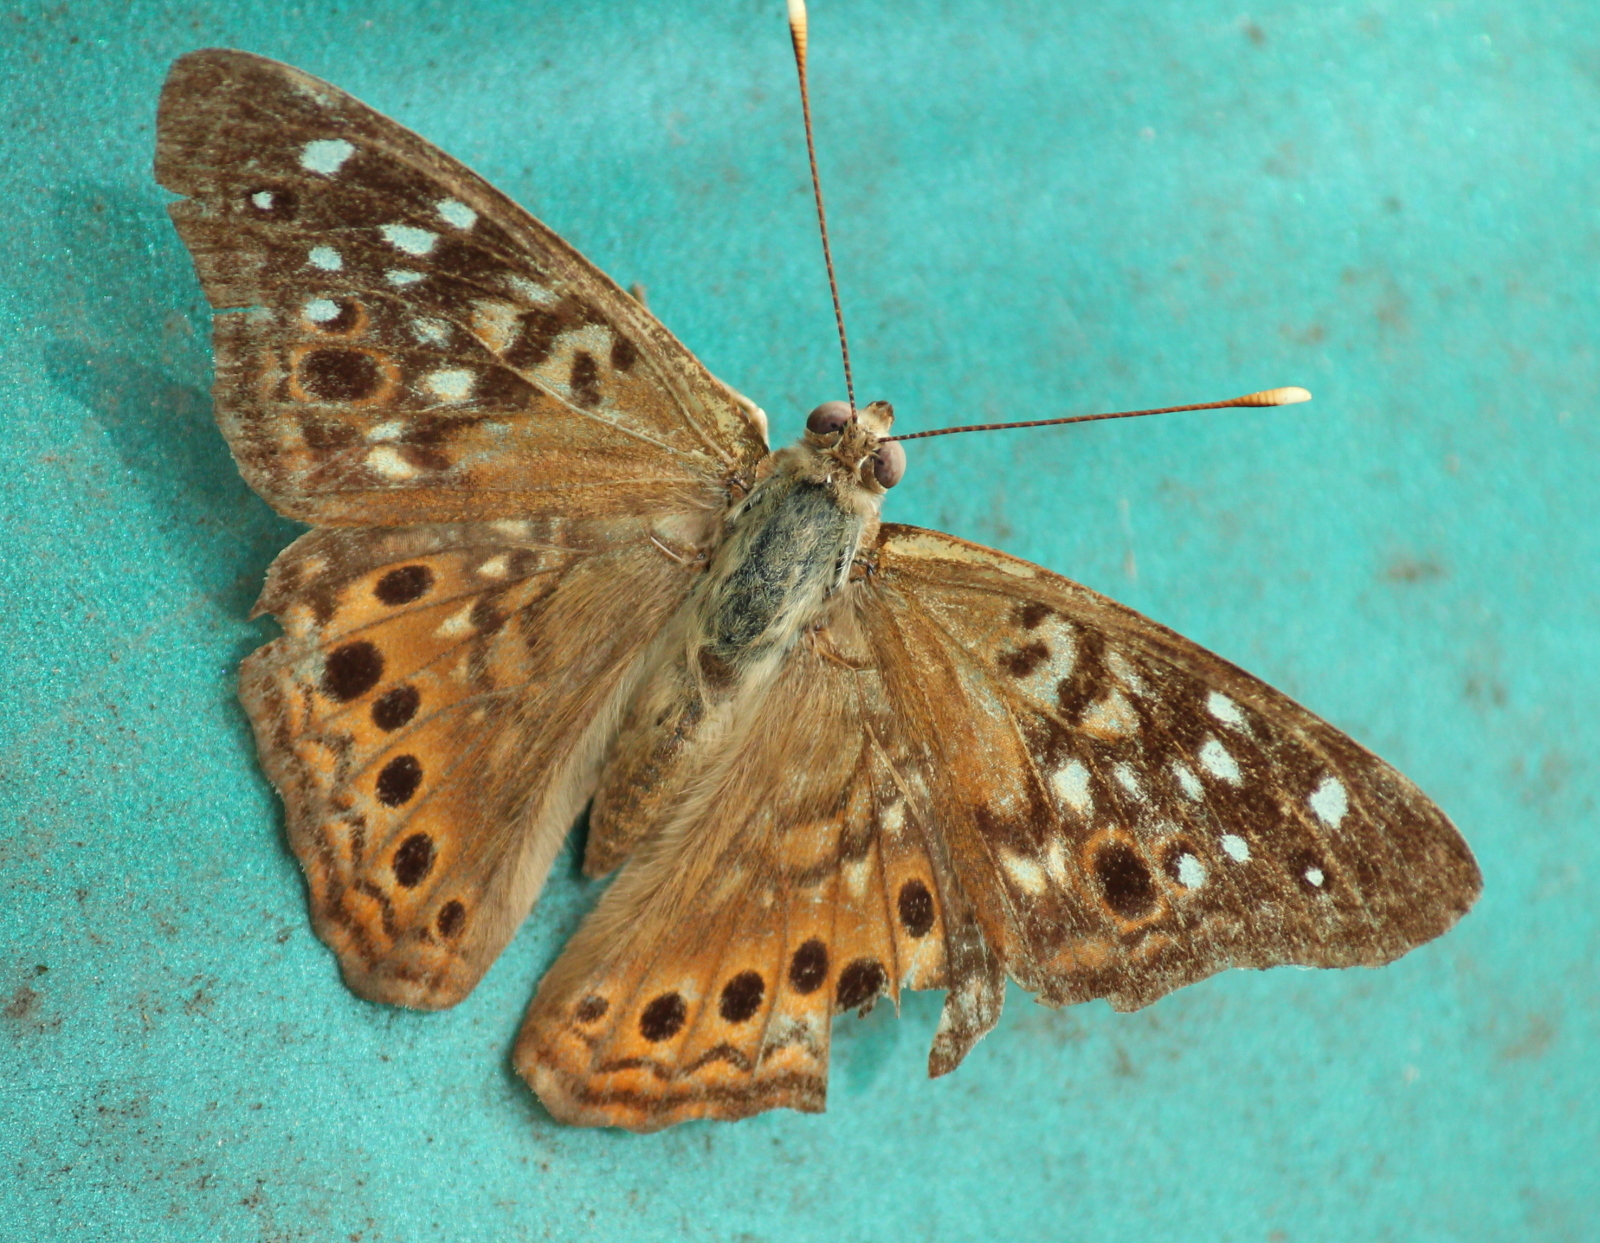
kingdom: Animalia
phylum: Arthropoda
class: Insecta
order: Lepidoptera
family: Nymphalidae
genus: Asterocampa
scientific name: Asterocampa celtis
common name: Hackberry emperor
